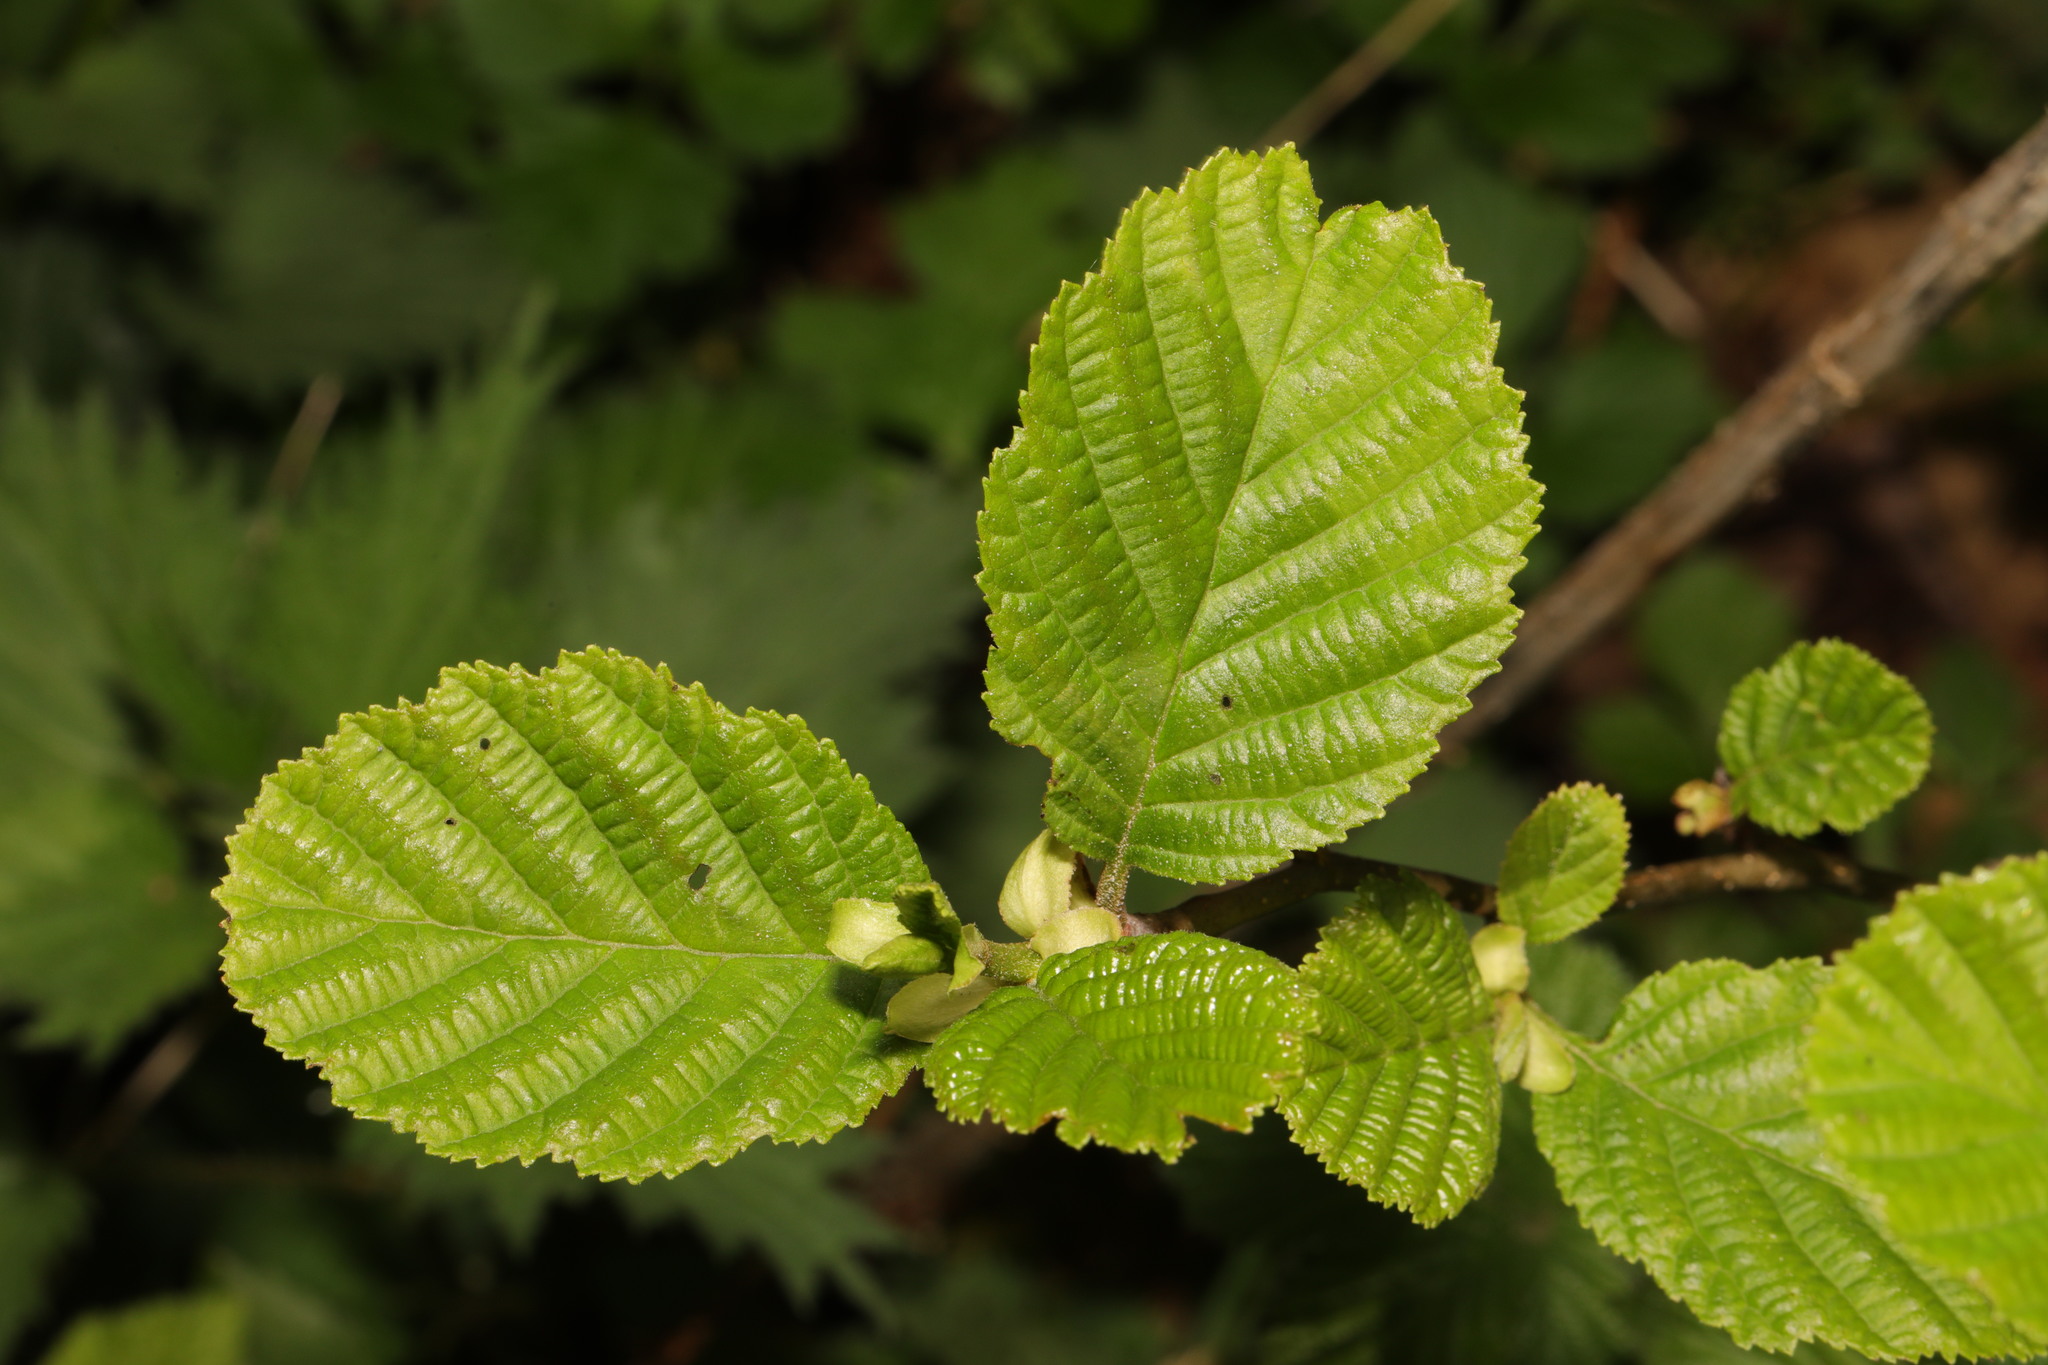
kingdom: Plantae
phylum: Tracheophyta
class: Magnoliopsida
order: Fagales
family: Betulaceae
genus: Alnus
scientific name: Alnus glutinosa
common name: Black alder
